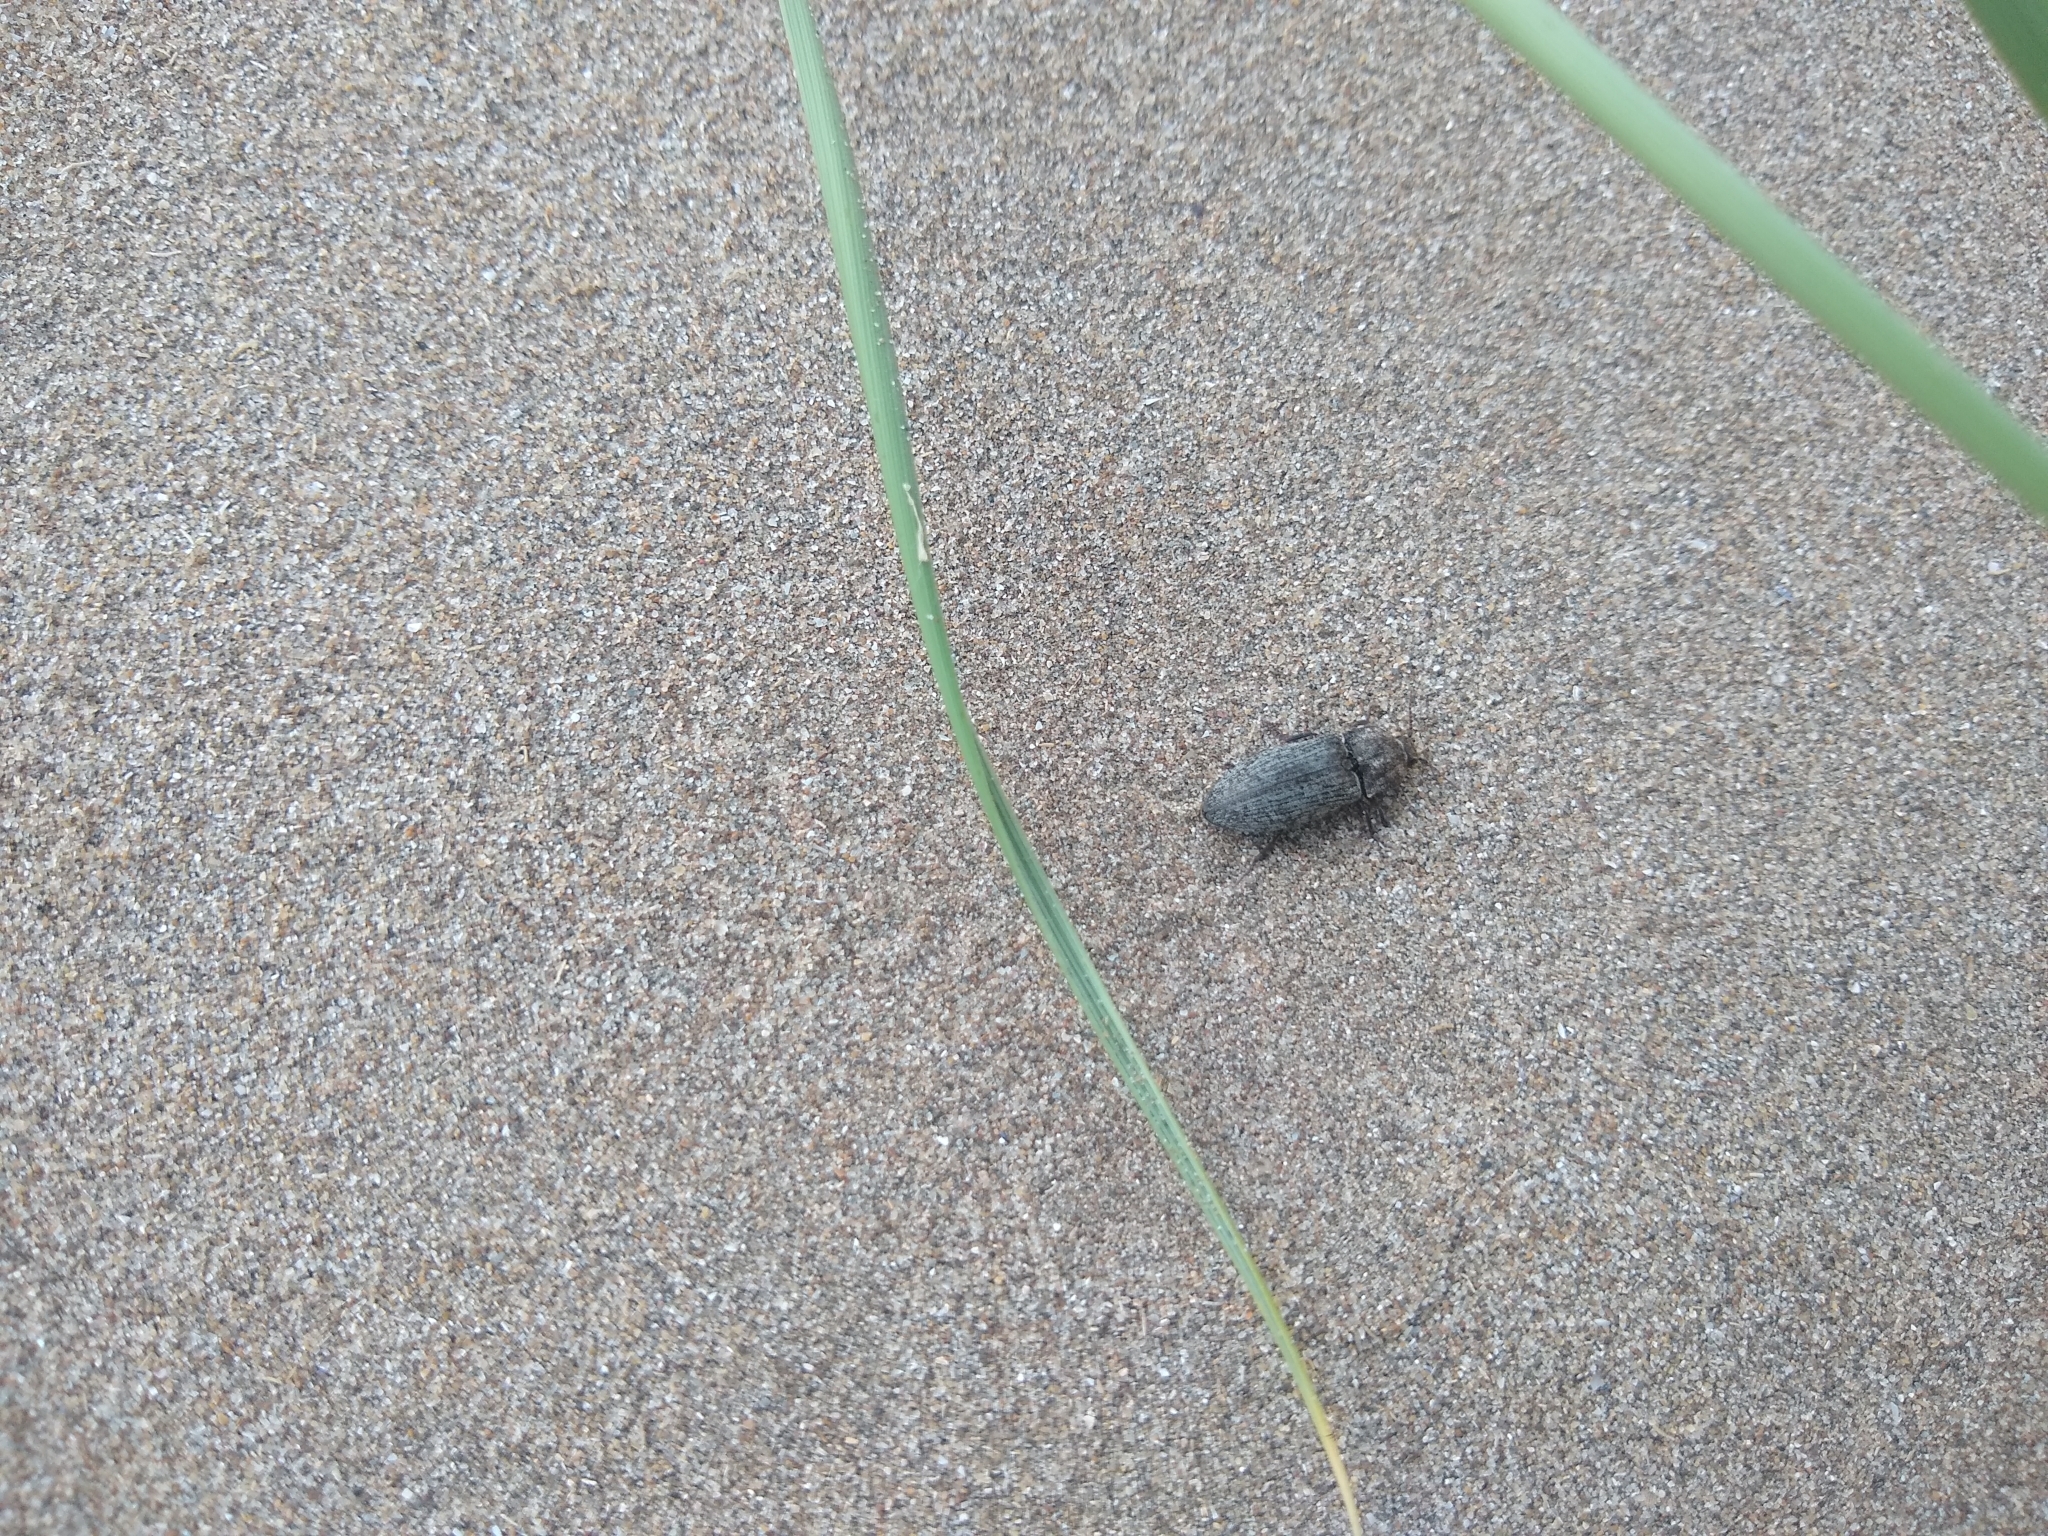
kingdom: Animalia
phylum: Arthropoda
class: Insecta
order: Coleoptera
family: Elateridae
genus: Agrypnus
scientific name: Agrypnus murinus
